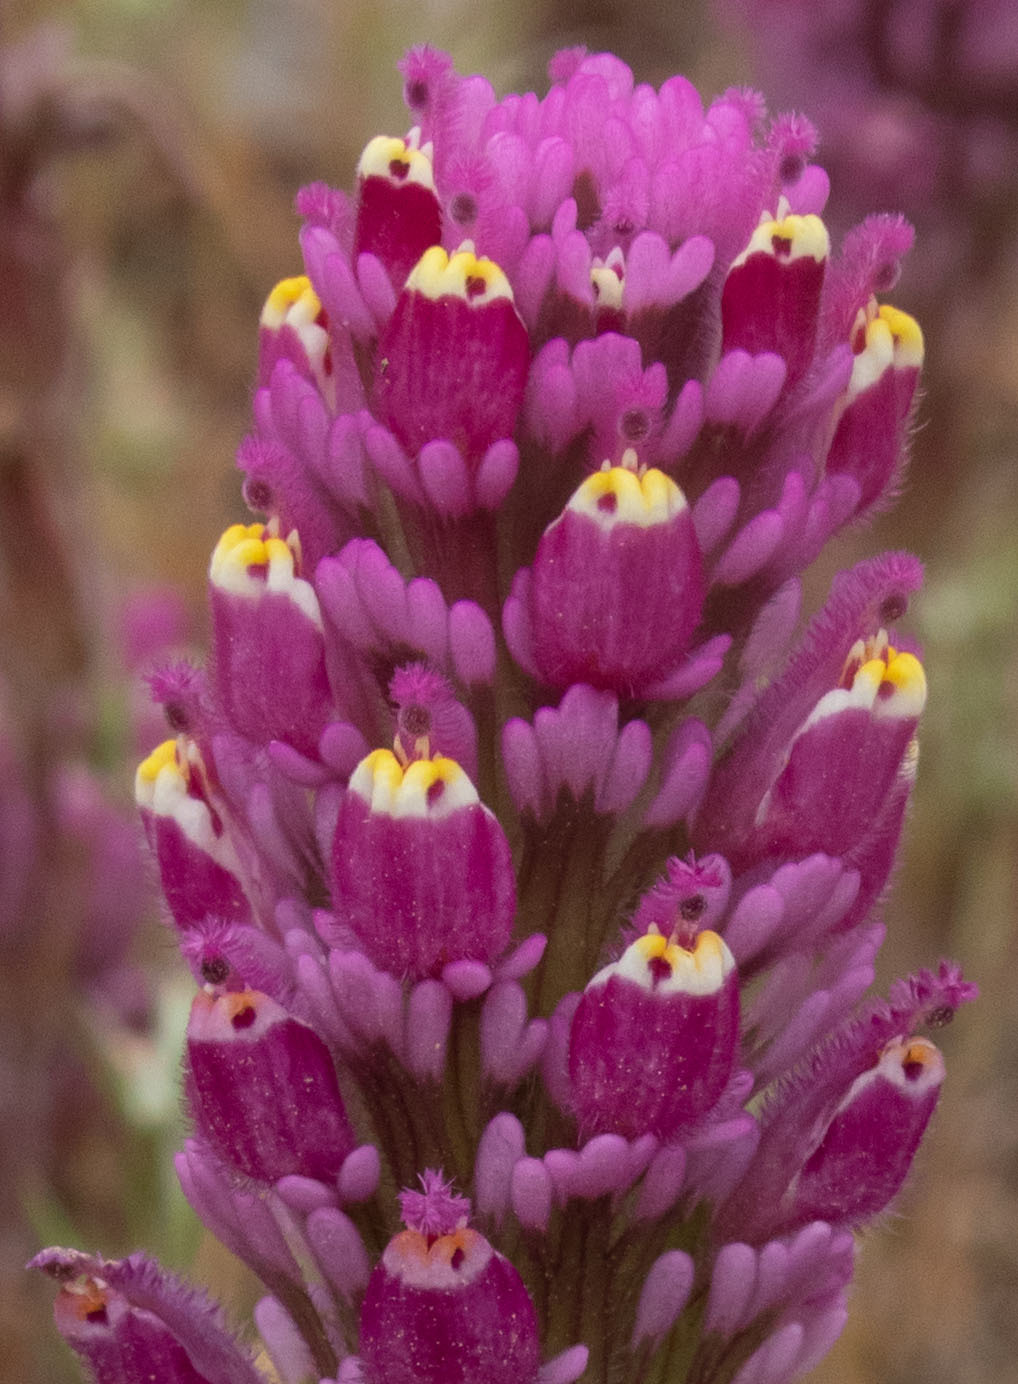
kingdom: Plantae
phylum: Tracheophyta
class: Magnoliopsida
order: Lamiales
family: Orobanchaceae
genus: Castilleja
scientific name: Castilleja exserta
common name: Purple owl-clover
